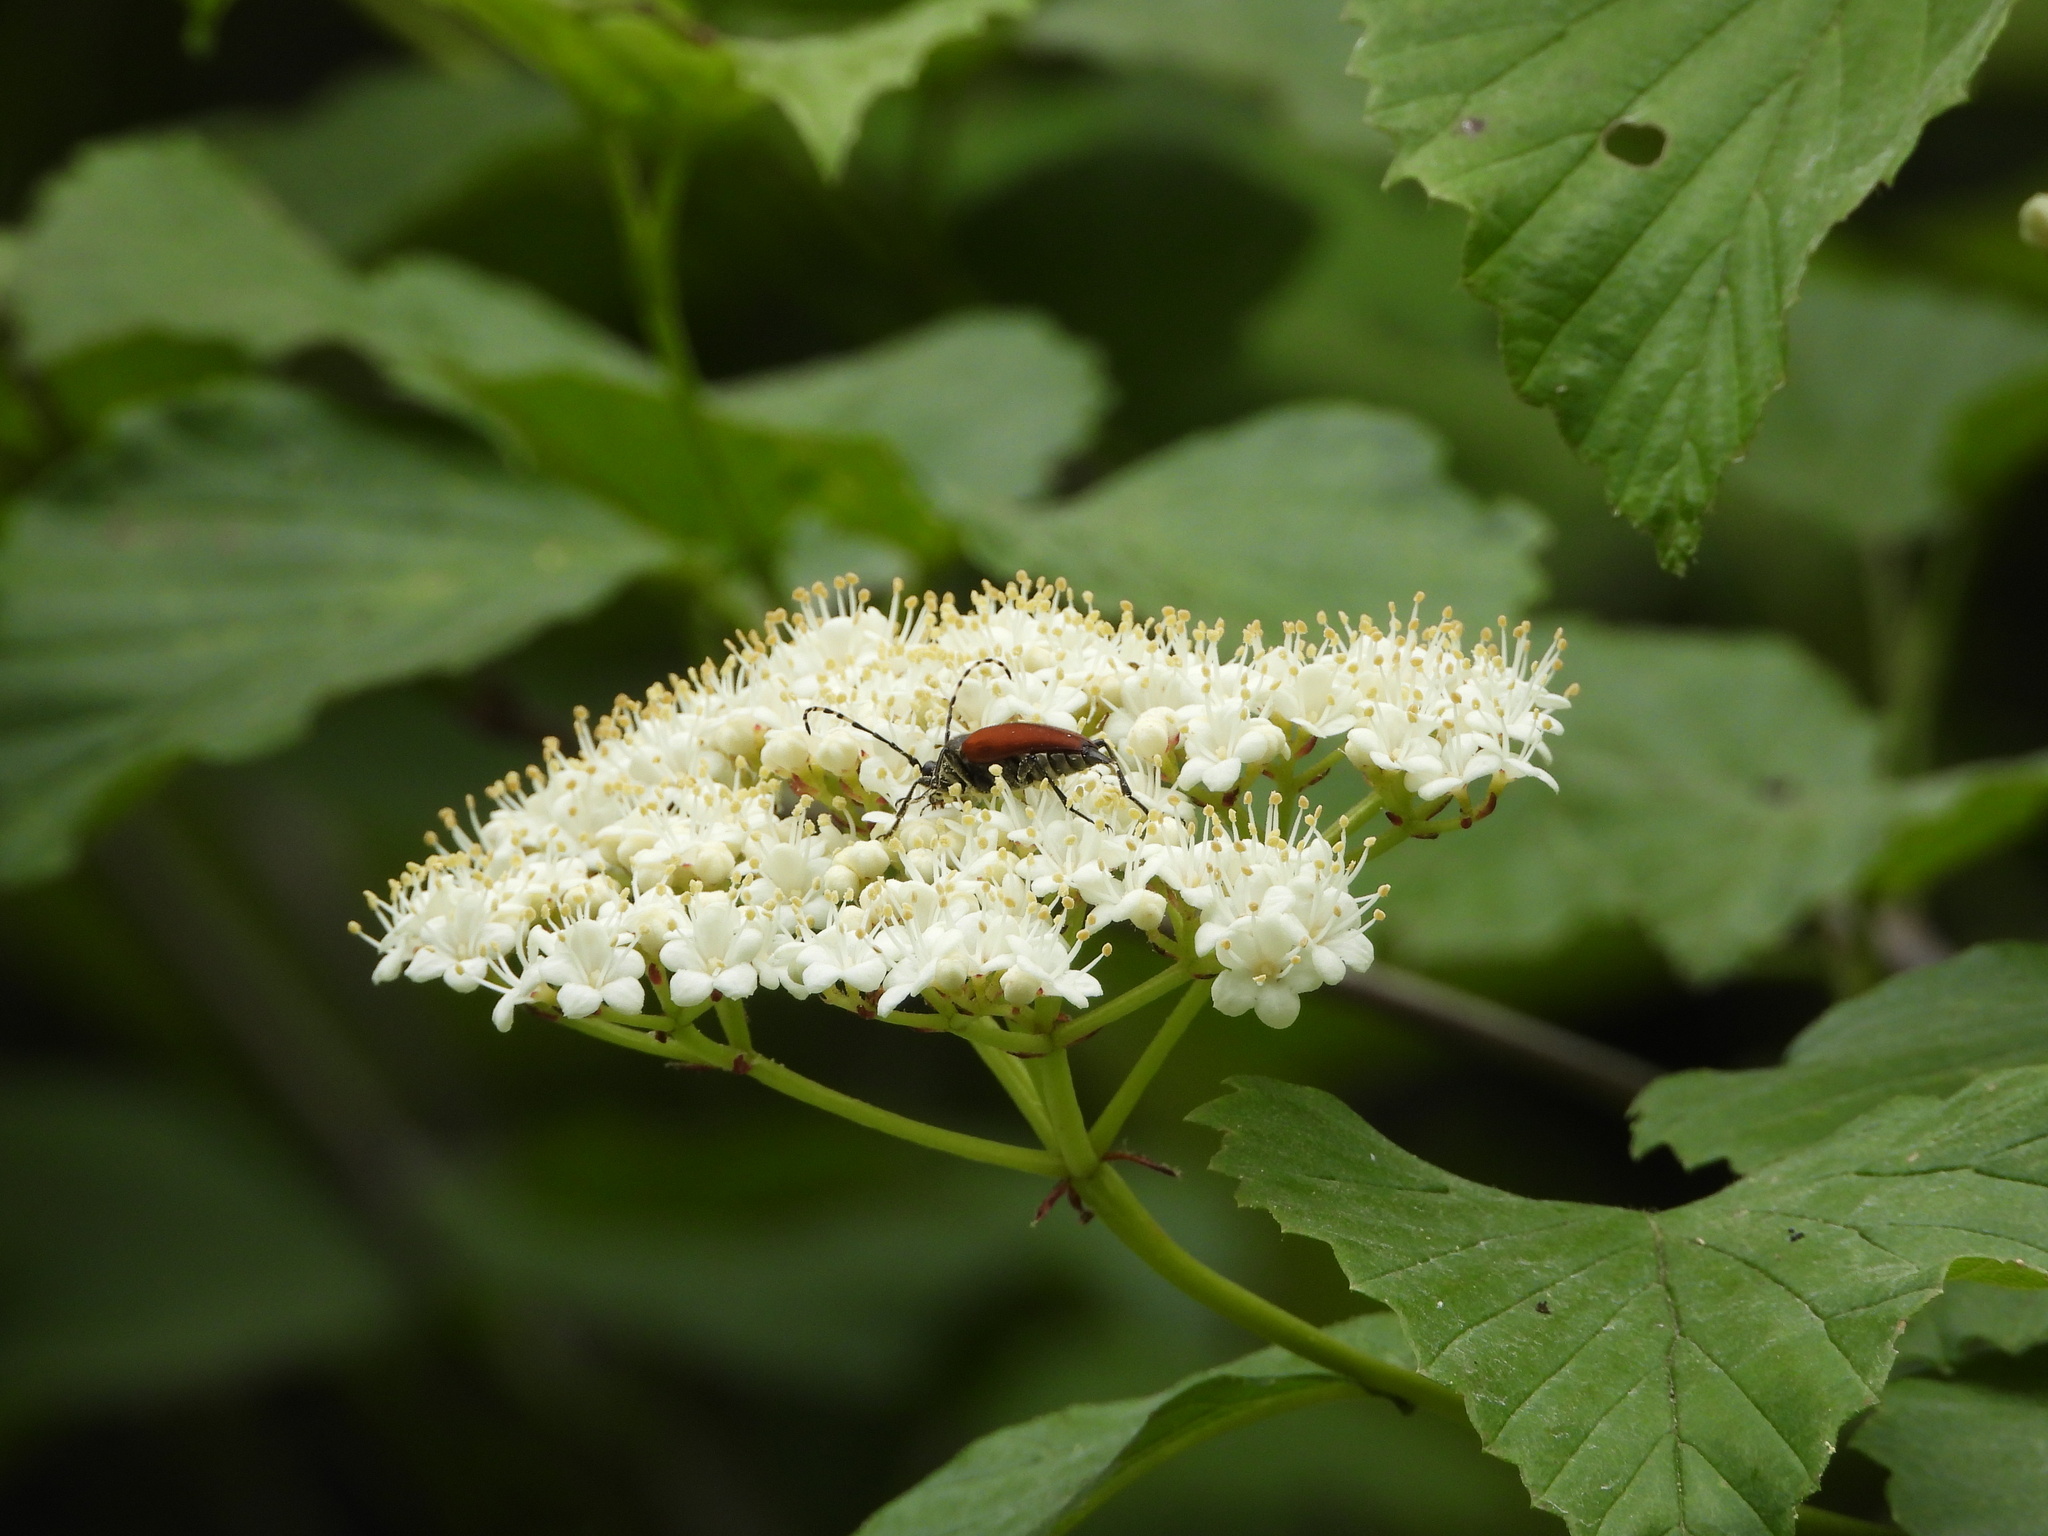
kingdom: Animalia
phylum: Arthropoda
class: Insecta
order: Coleoptera
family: Cerambycidae
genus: Brachyleptura
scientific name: Brachyleptura rubrica
